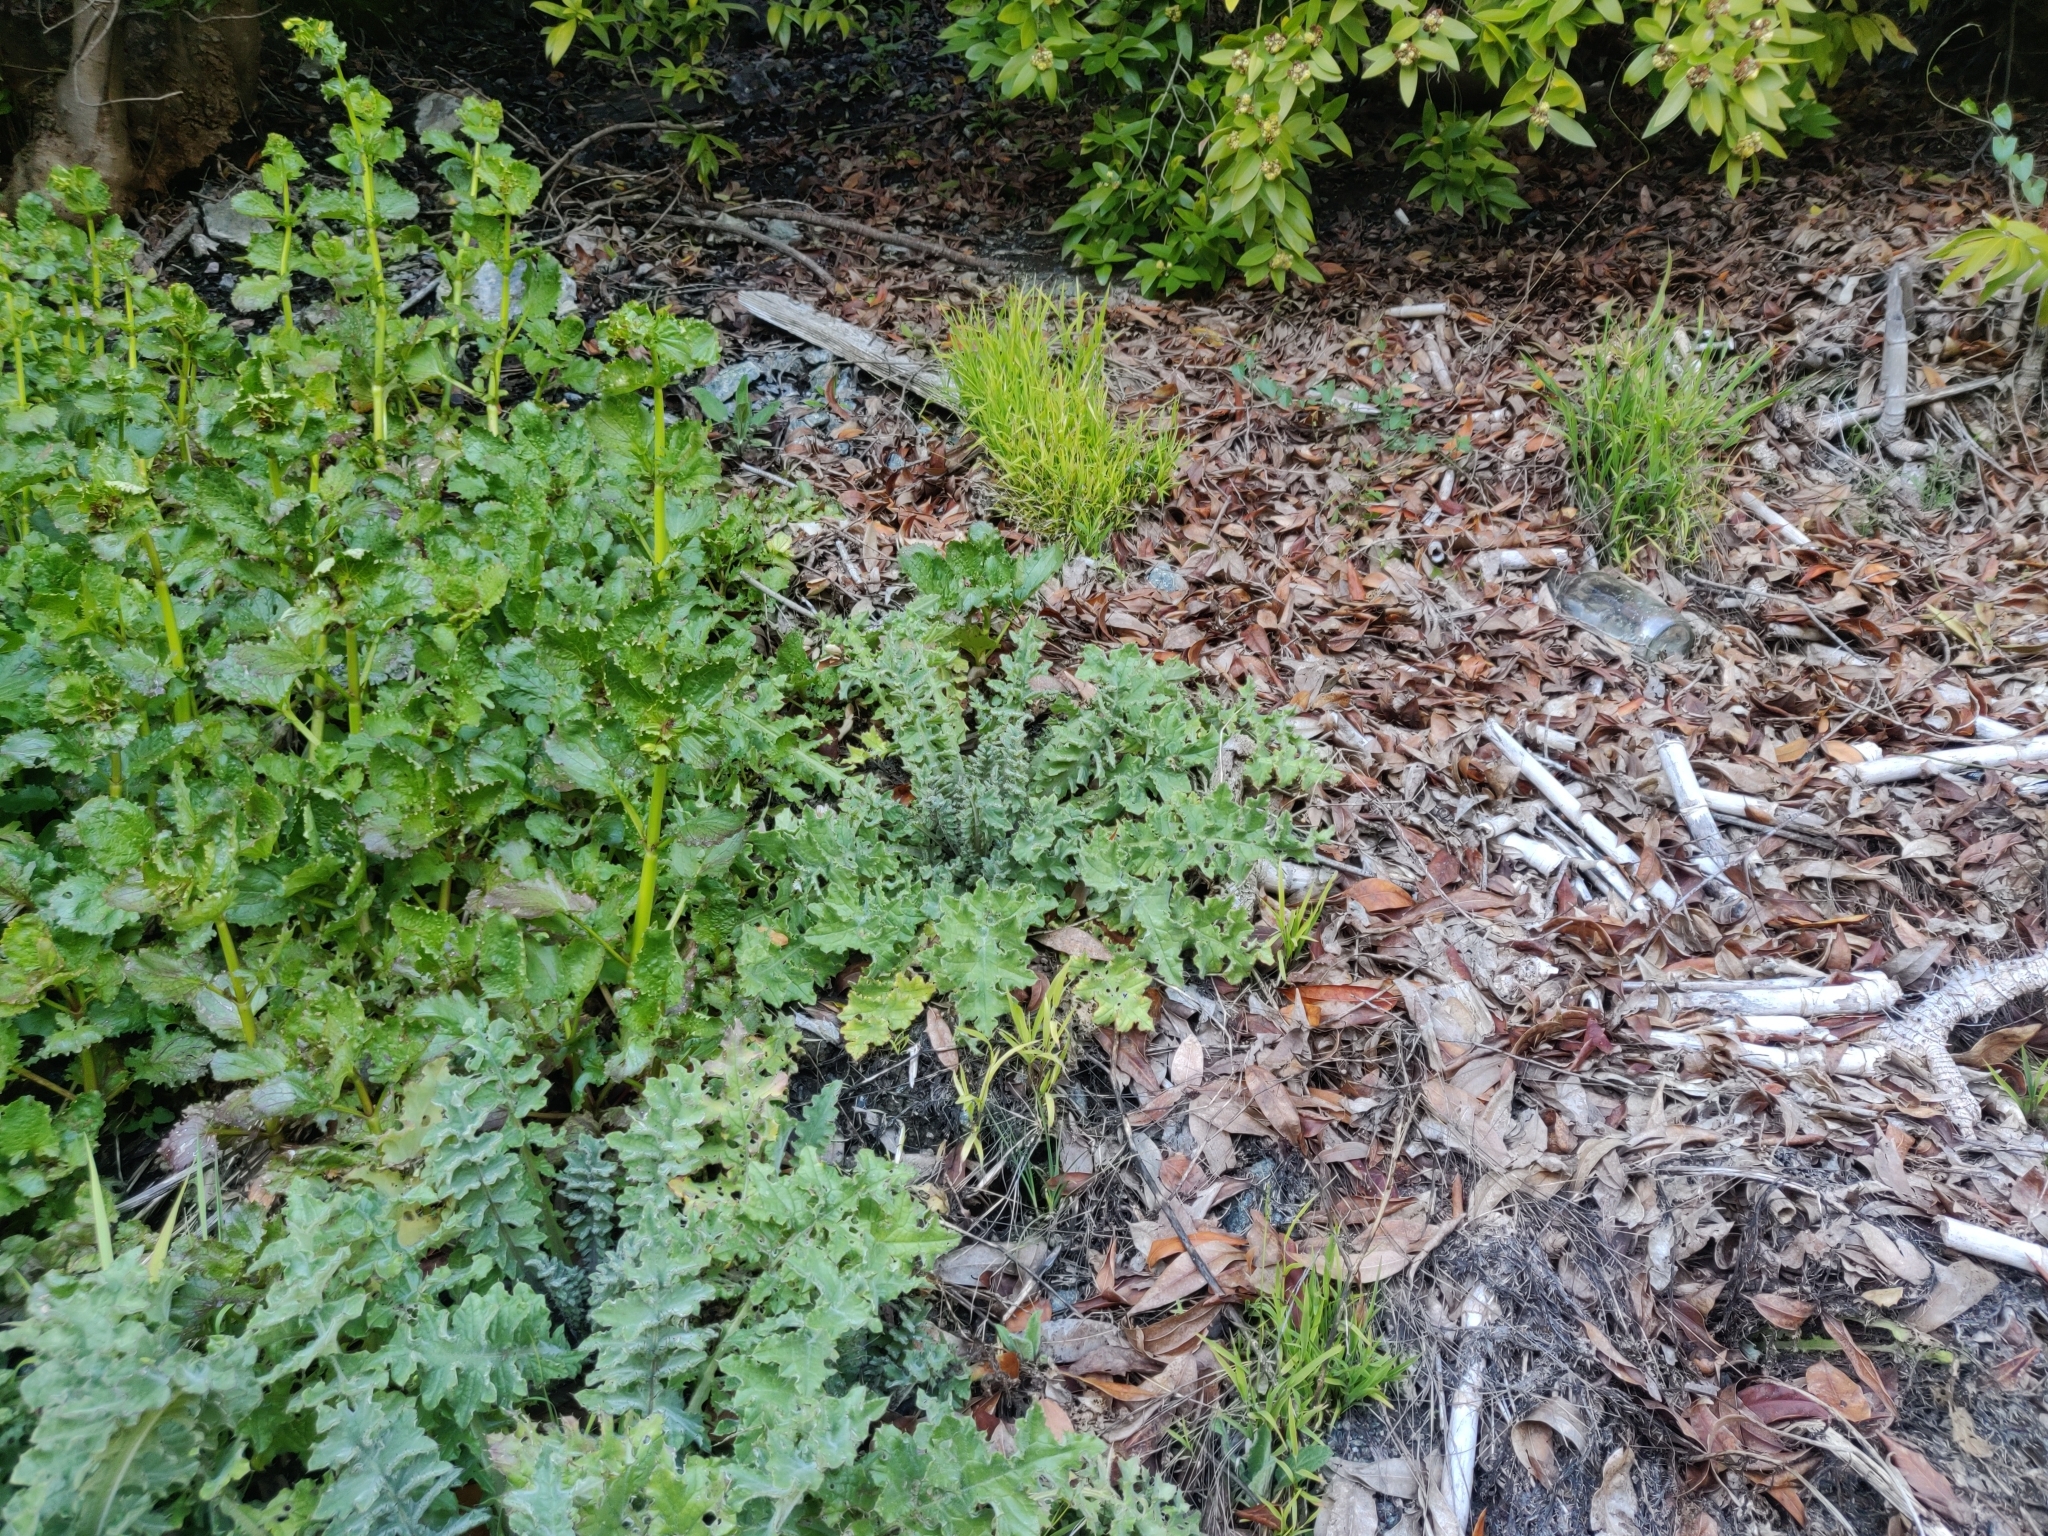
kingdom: Plantae
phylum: Tracheophyta
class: Magnoliopsida
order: Asterales
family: Asteraceae
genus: Cirsium
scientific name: Cirsium fontinale
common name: Fountain thistle
